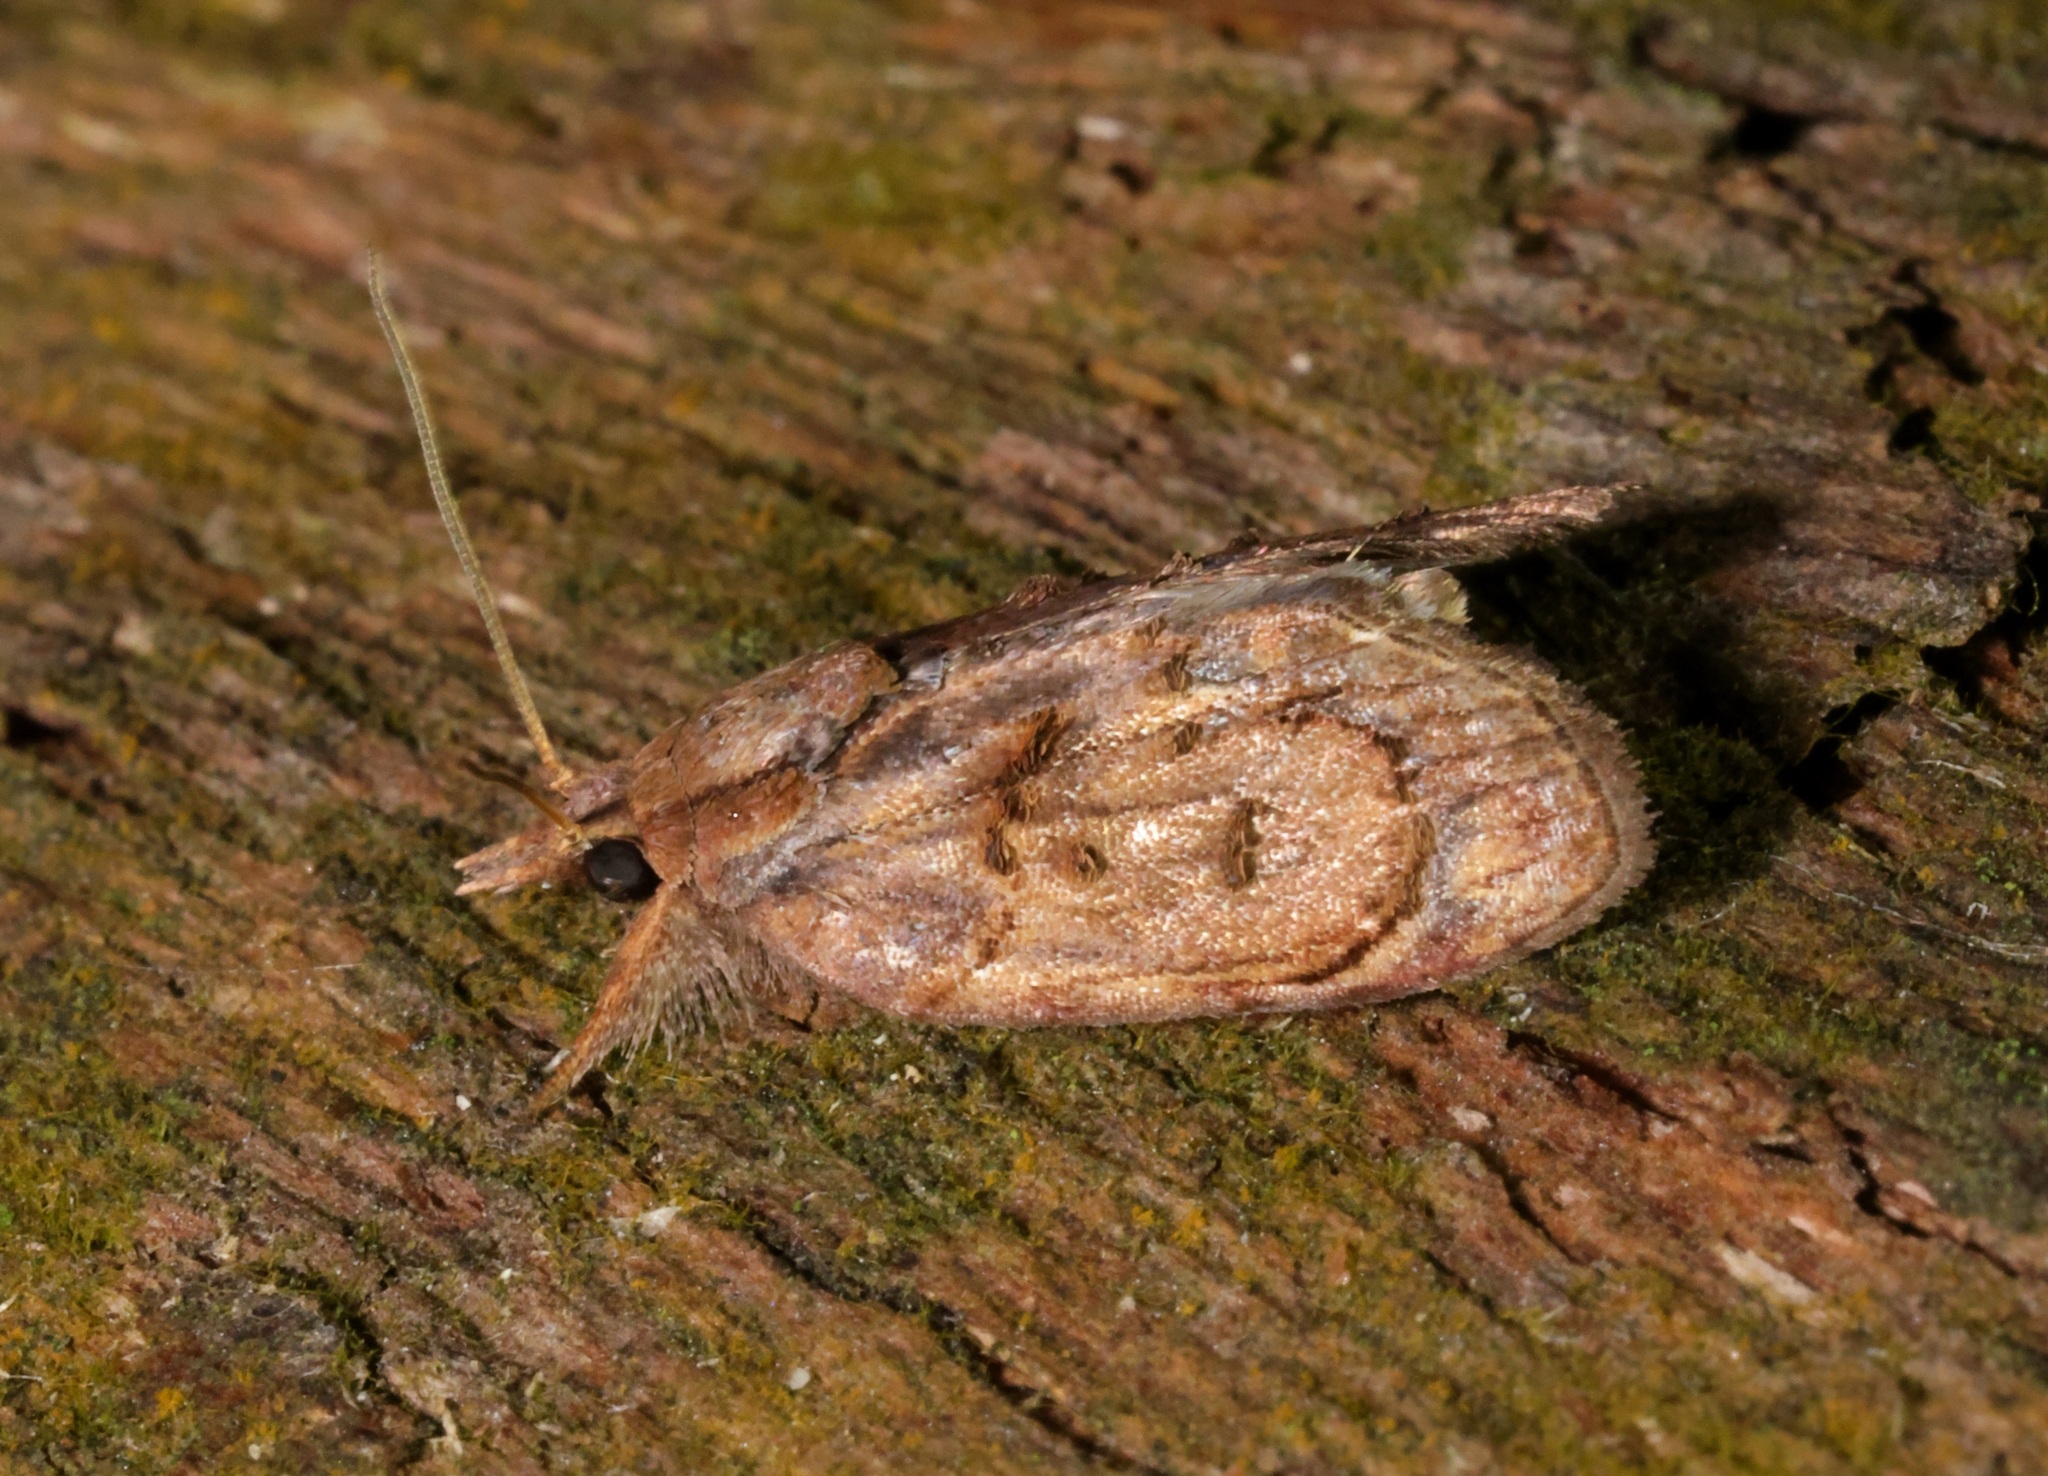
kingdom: Animalia
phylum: Arthropoda
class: Insecta
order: Lepidoptera
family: Nolidae
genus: Selepa
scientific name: Selepa discigera
